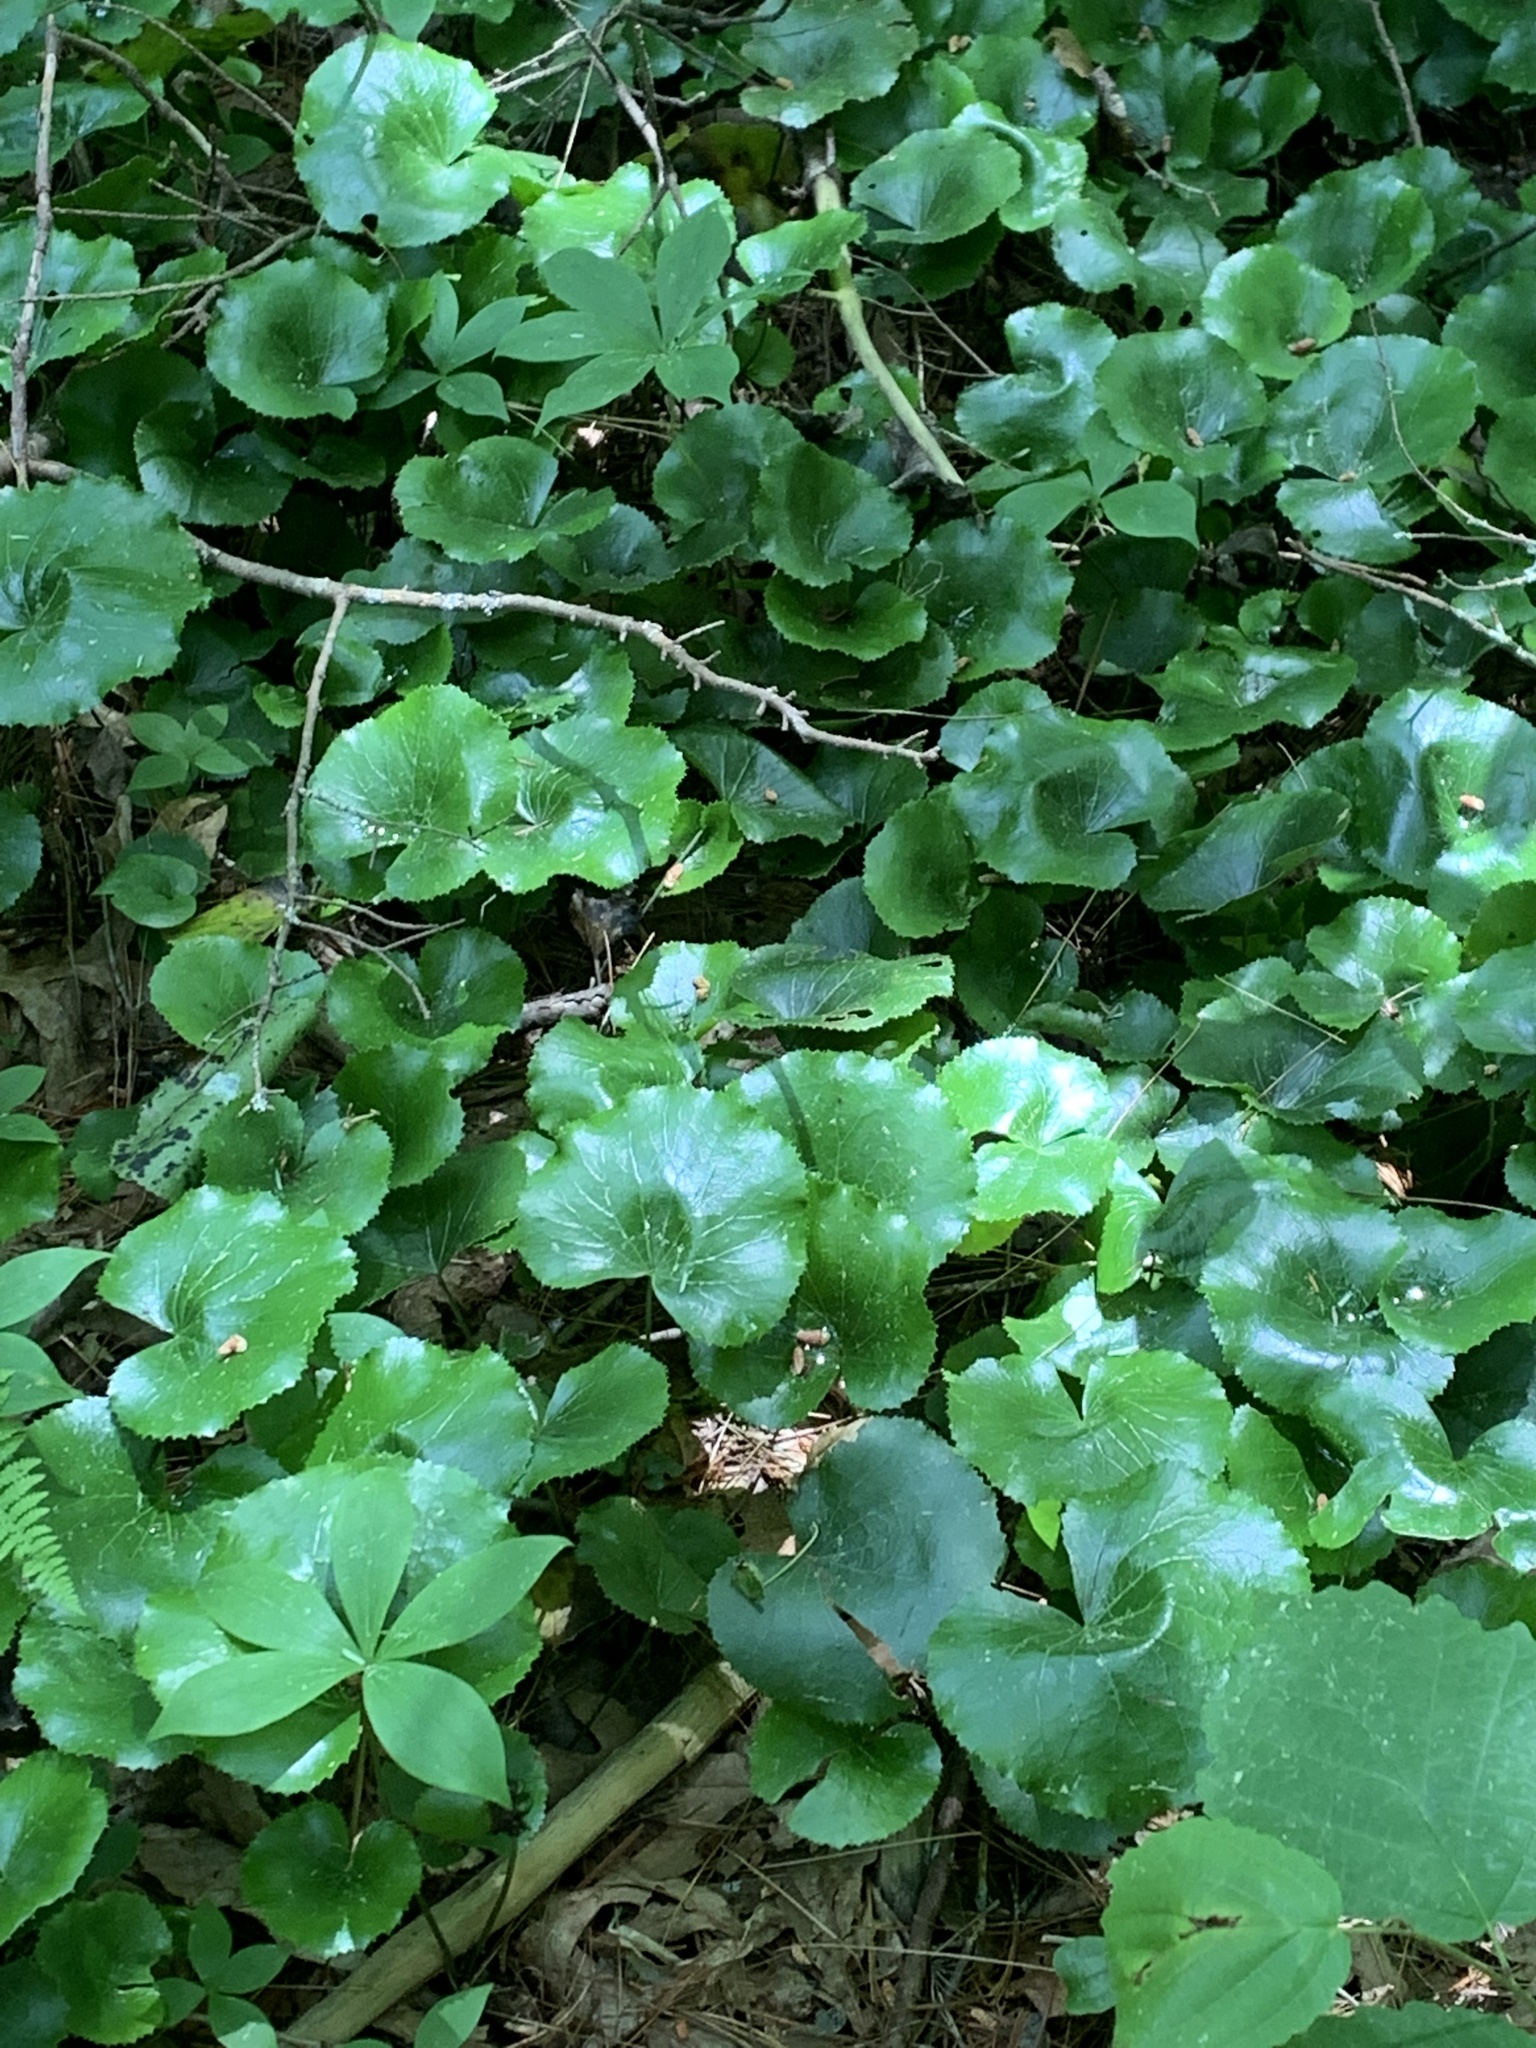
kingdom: Plantae
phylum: Tracheophyta
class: Magnoliopsida
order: Ericales
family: Diapensiaceae
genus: Galax
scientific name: Galax urceolata
